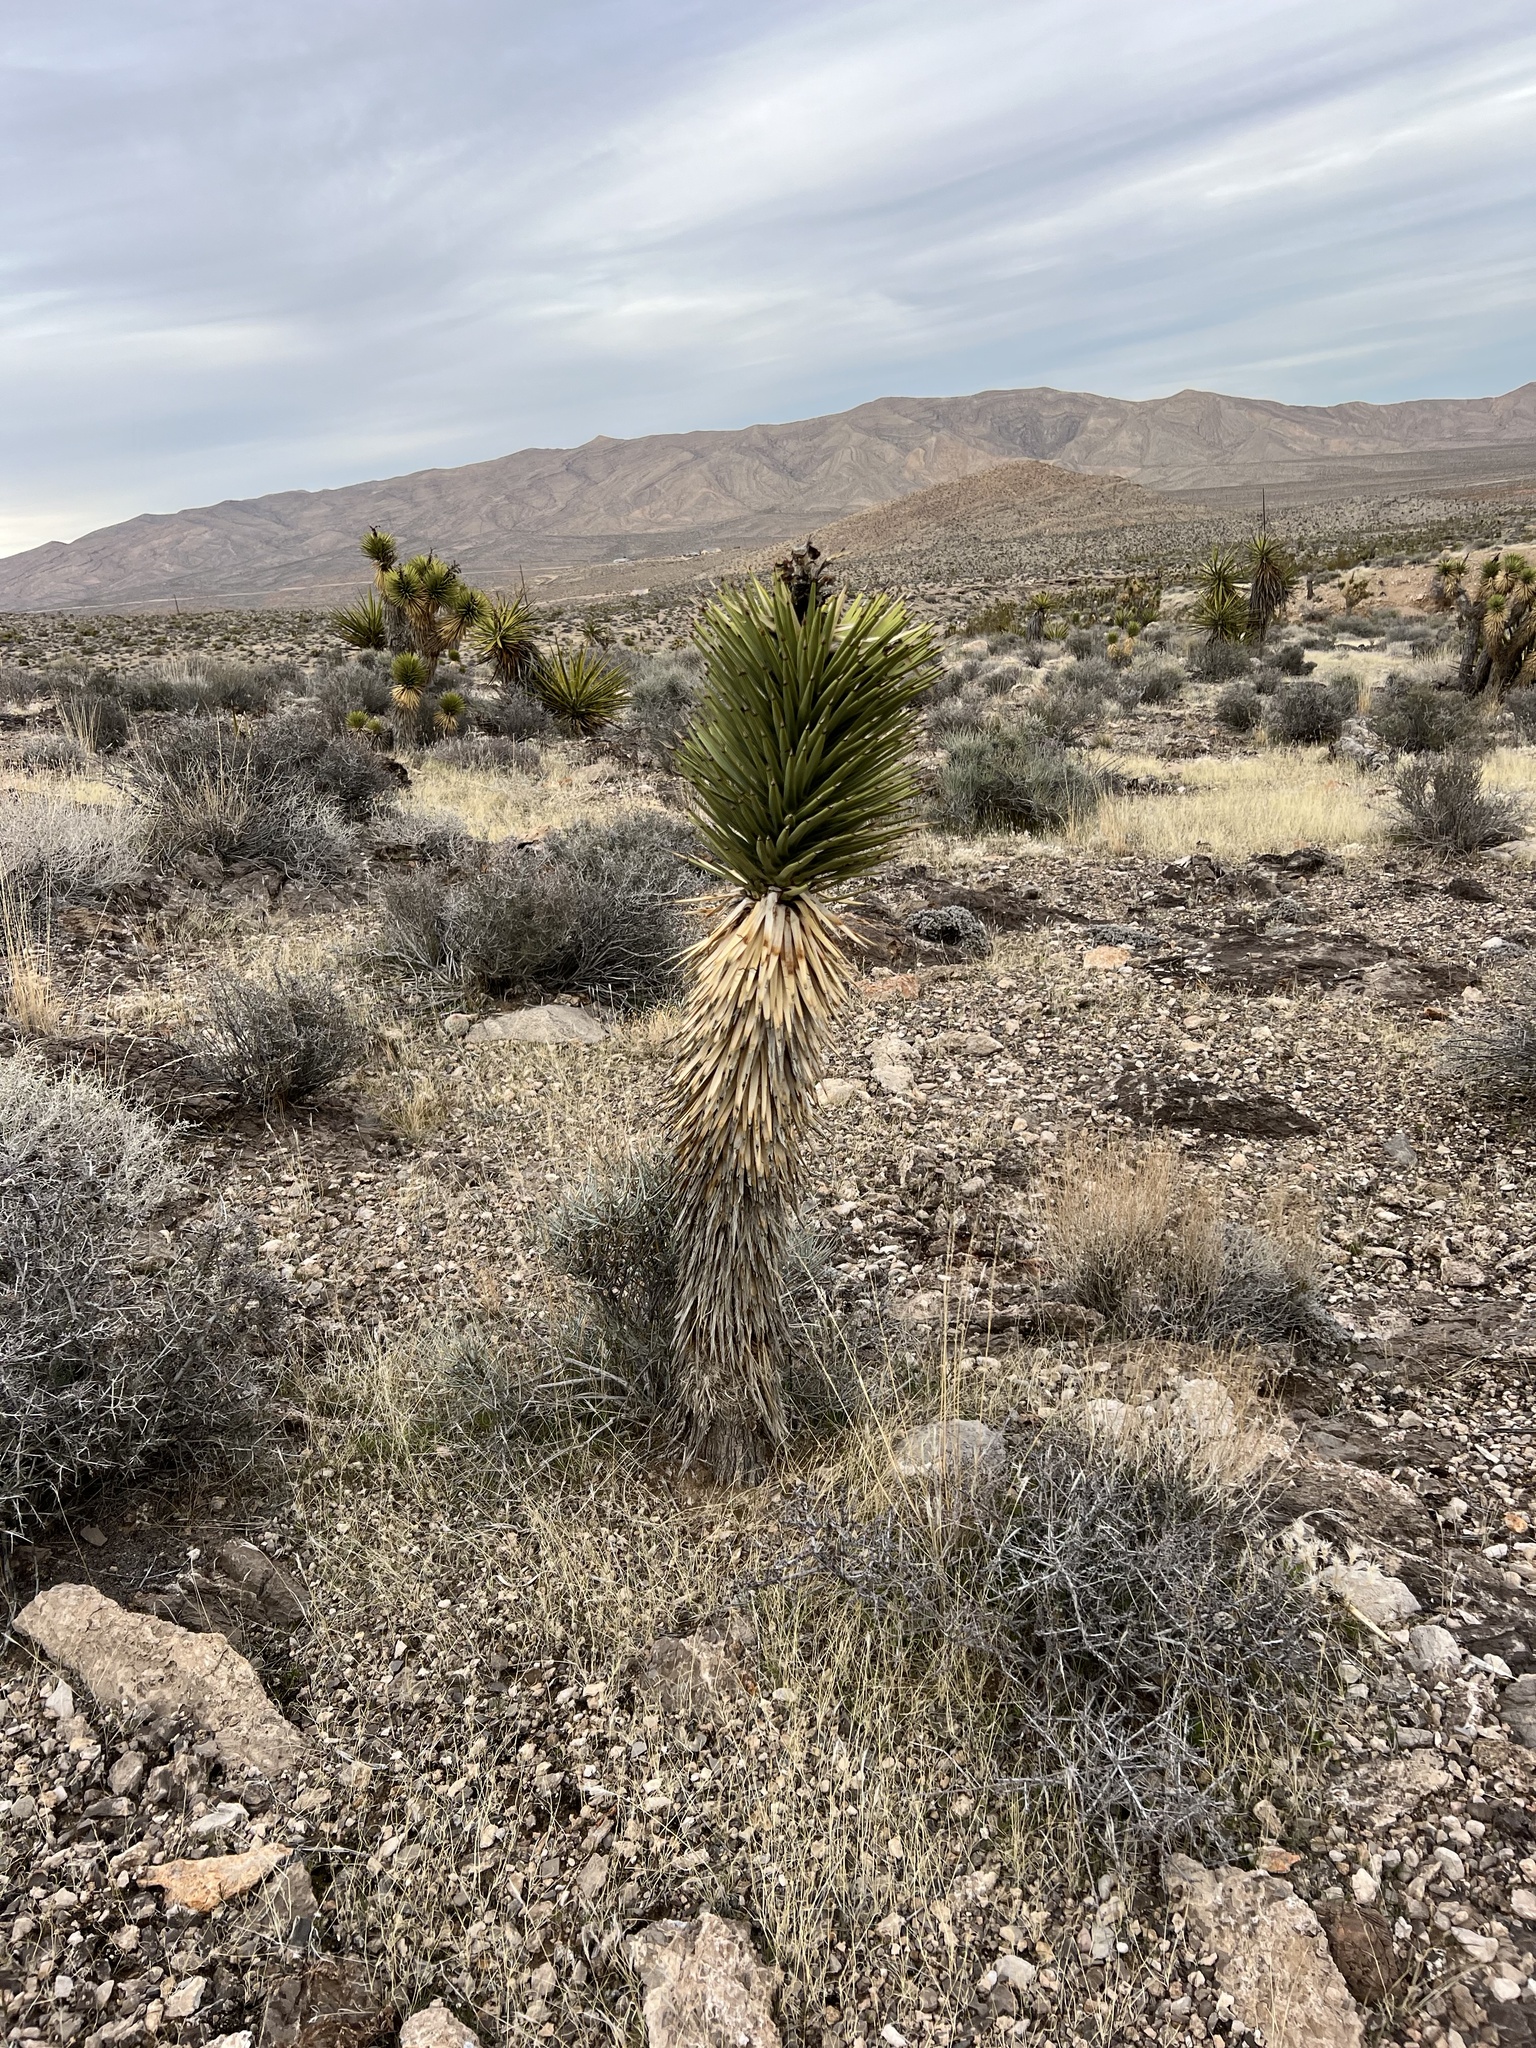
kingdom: Plantae
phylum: Tracheophyta
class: Liliopsida
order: Asparagales
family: Asparagaceae
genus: Yucca
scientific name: Yucca brevifolia
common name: Joshua tree
